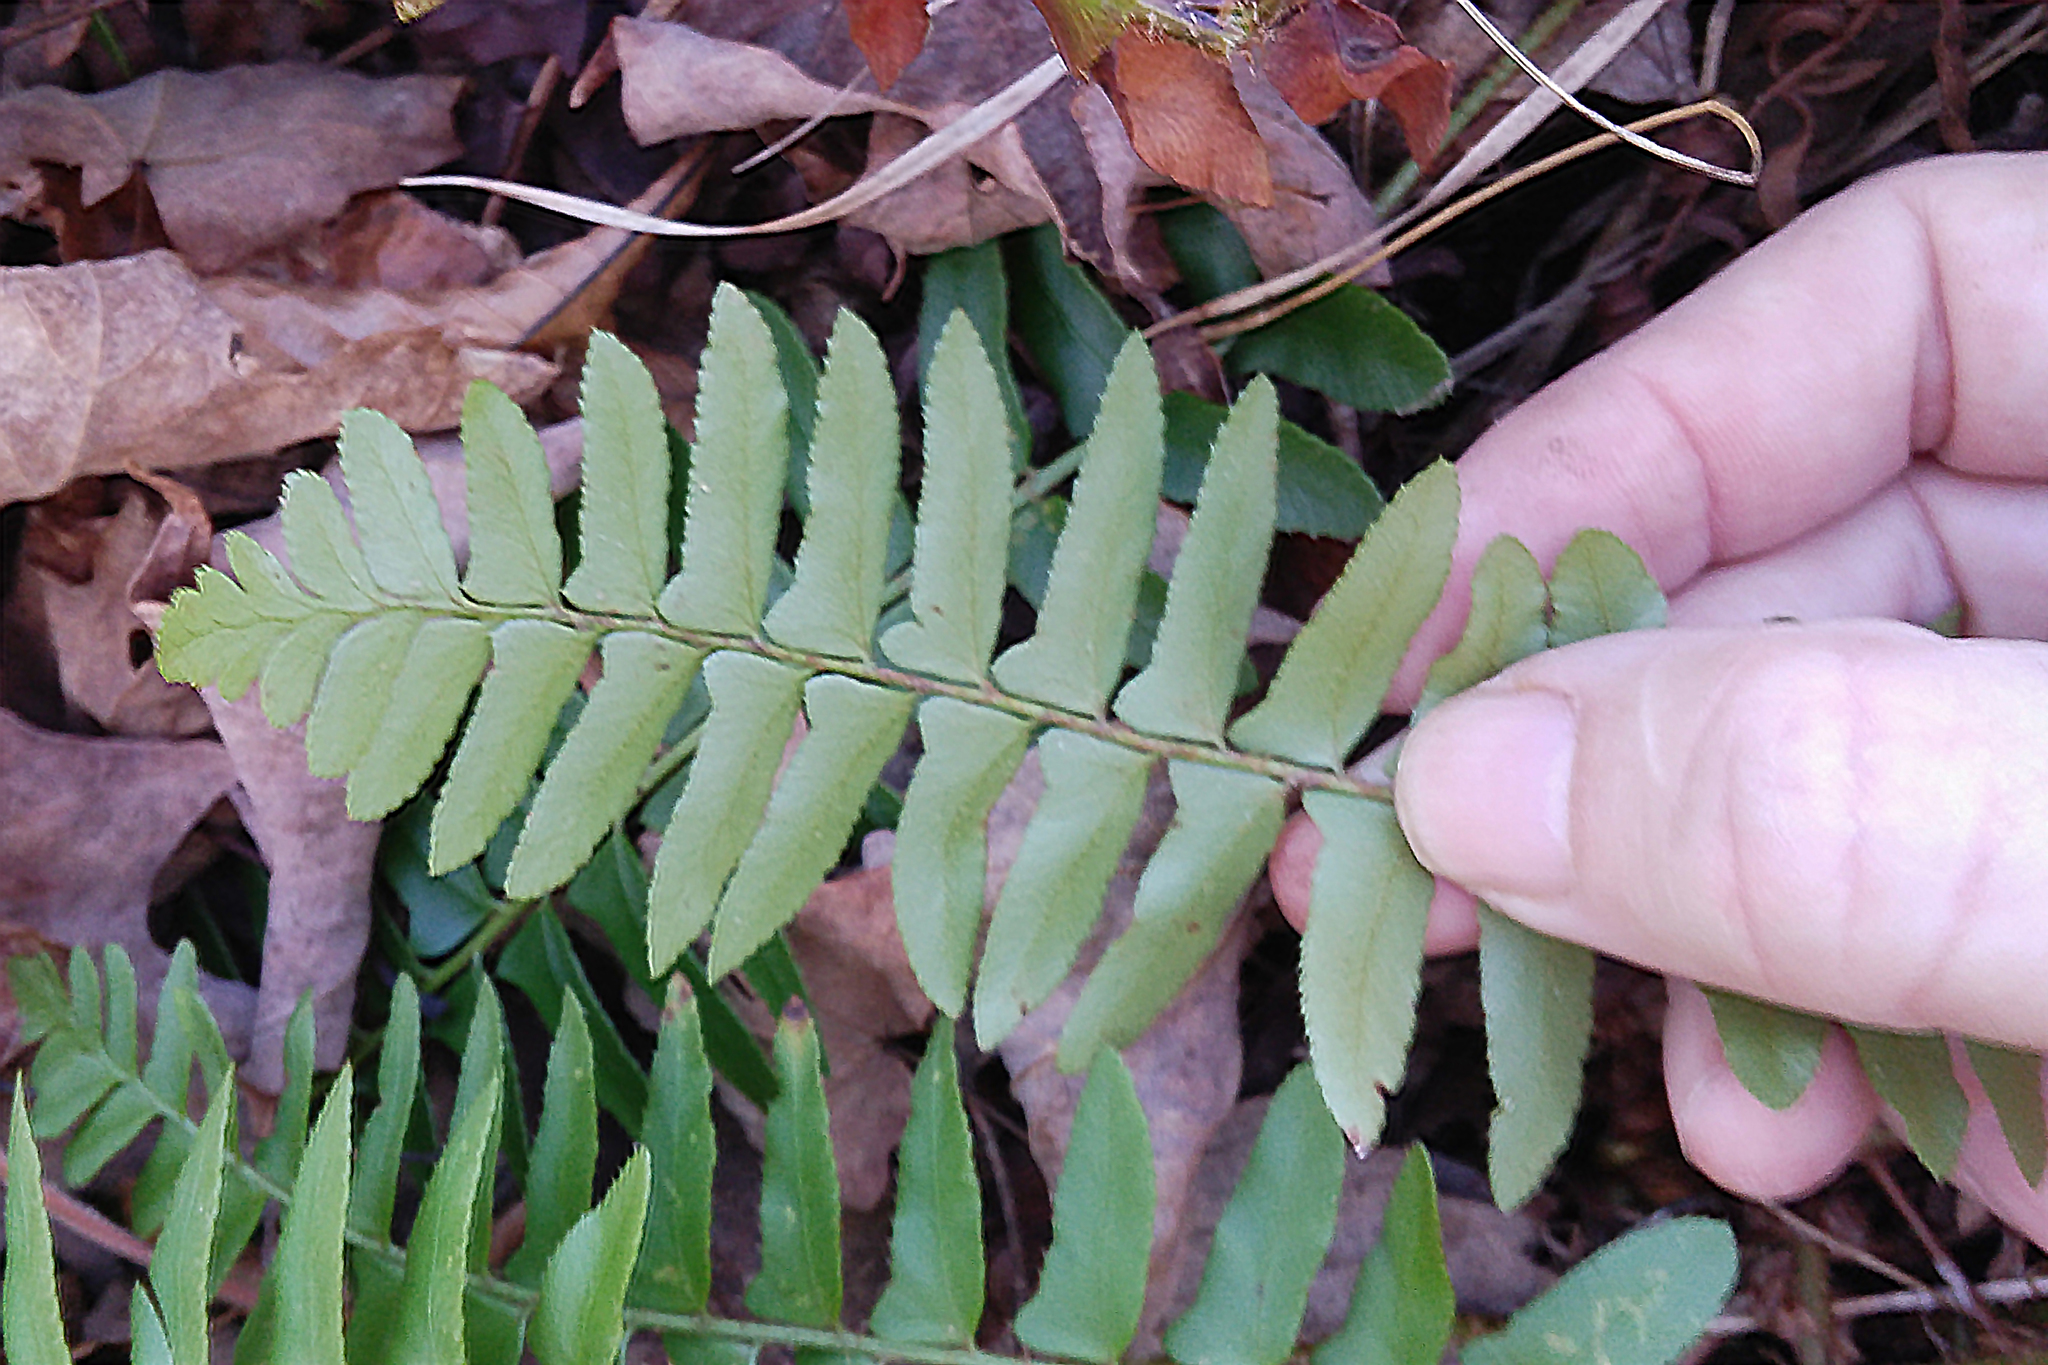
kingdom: Plantae
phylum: Tracheophyta
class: Polypodiopsida
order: Polypodiales
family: Dryopteridaceae
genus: Polystichum
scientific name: Polystichum acrostichoides
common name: Christmas fern
